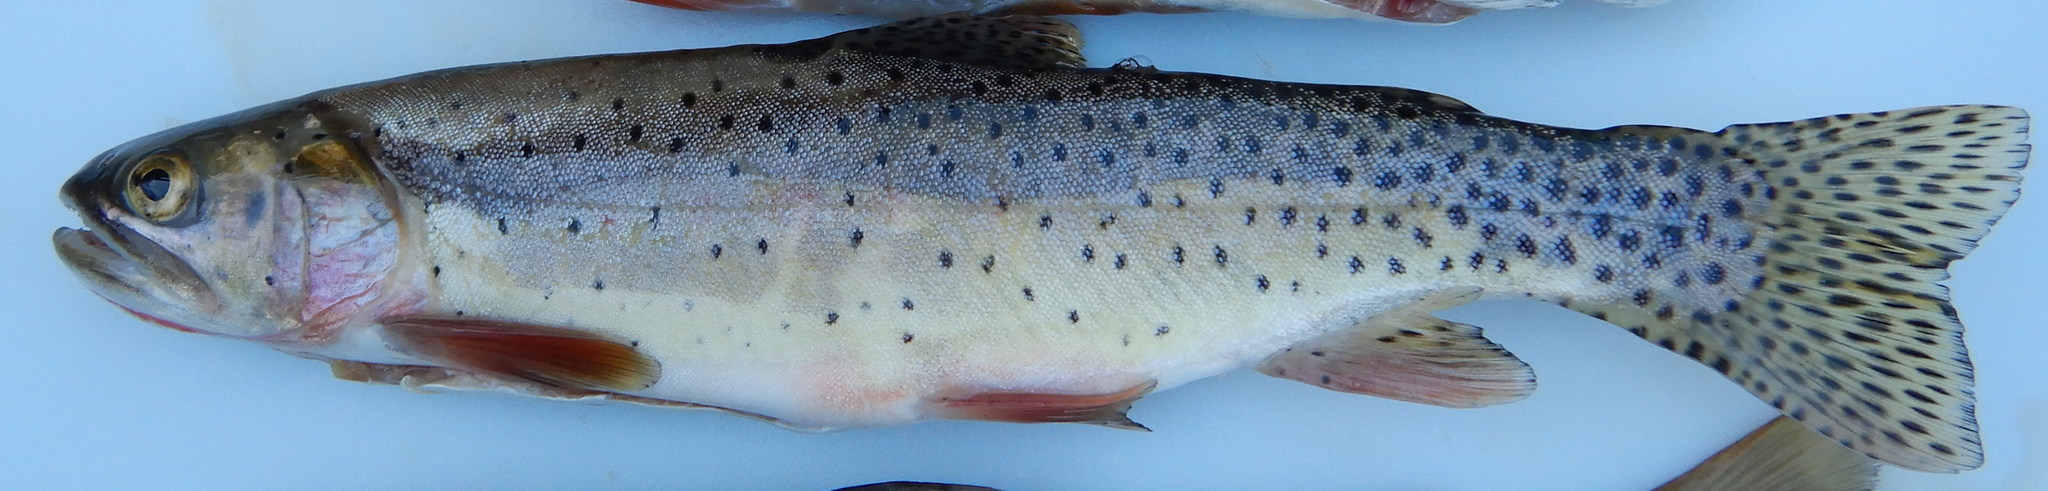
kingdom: Animalia
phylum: Chordata
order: Salmoniformes
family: Salmonidae
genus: Oncorhynchus
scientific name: Oncorhynchus virginalis
